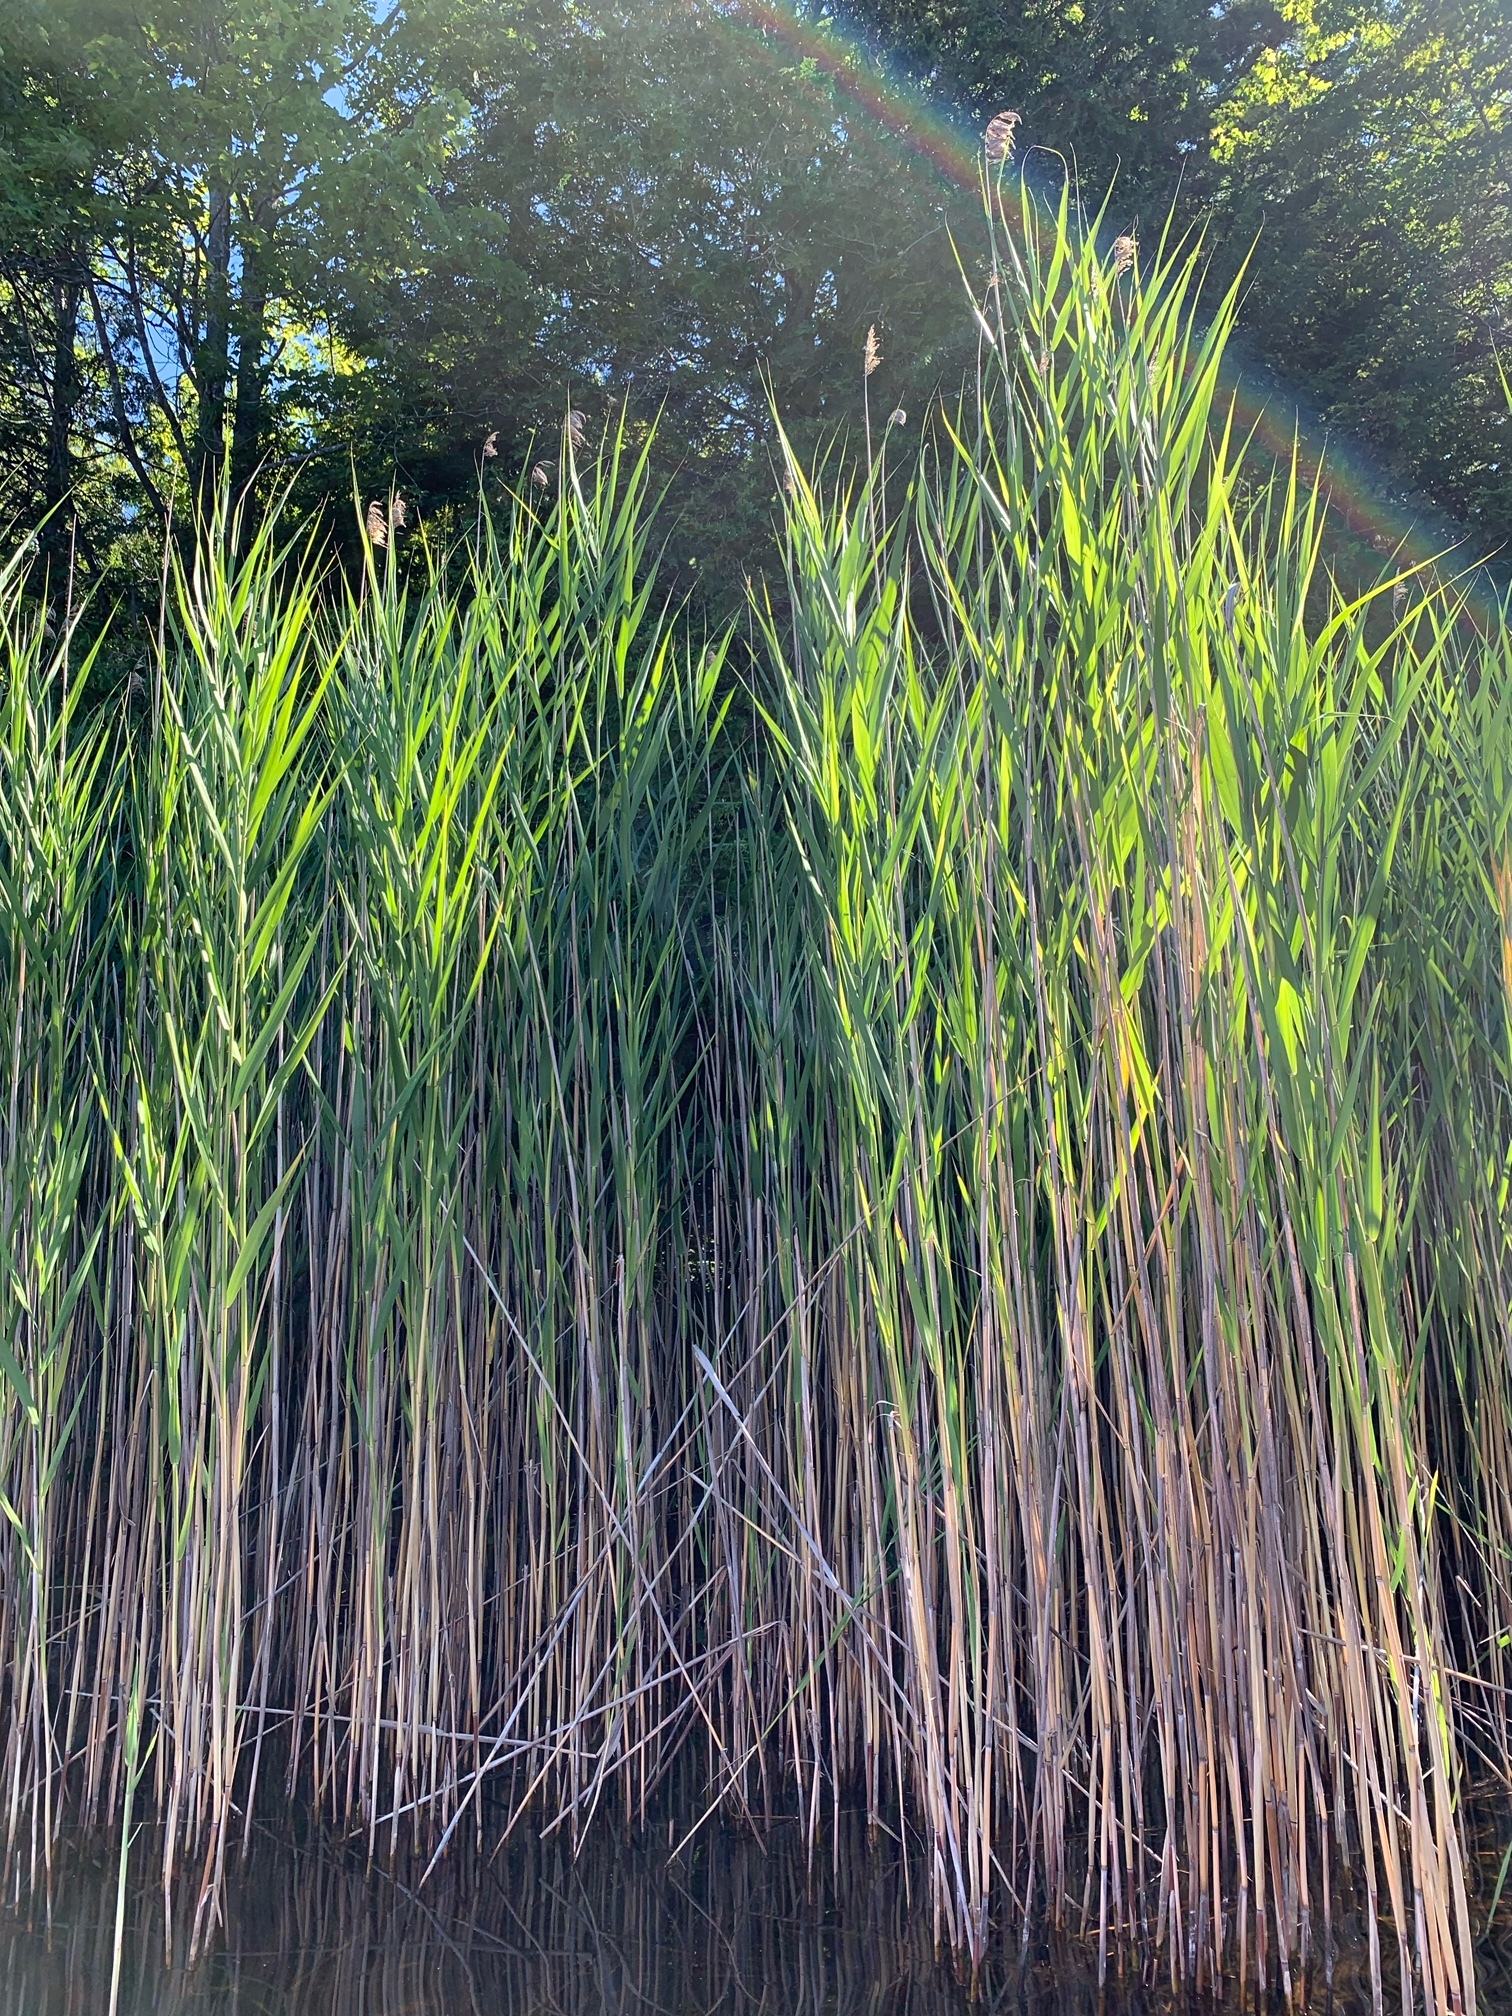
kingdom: Plantae
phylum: Tracheophyta
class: Liliopsida
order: Poales
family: Poaceae
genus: Phragmites
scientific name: Phragmites australis
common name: Common reed
